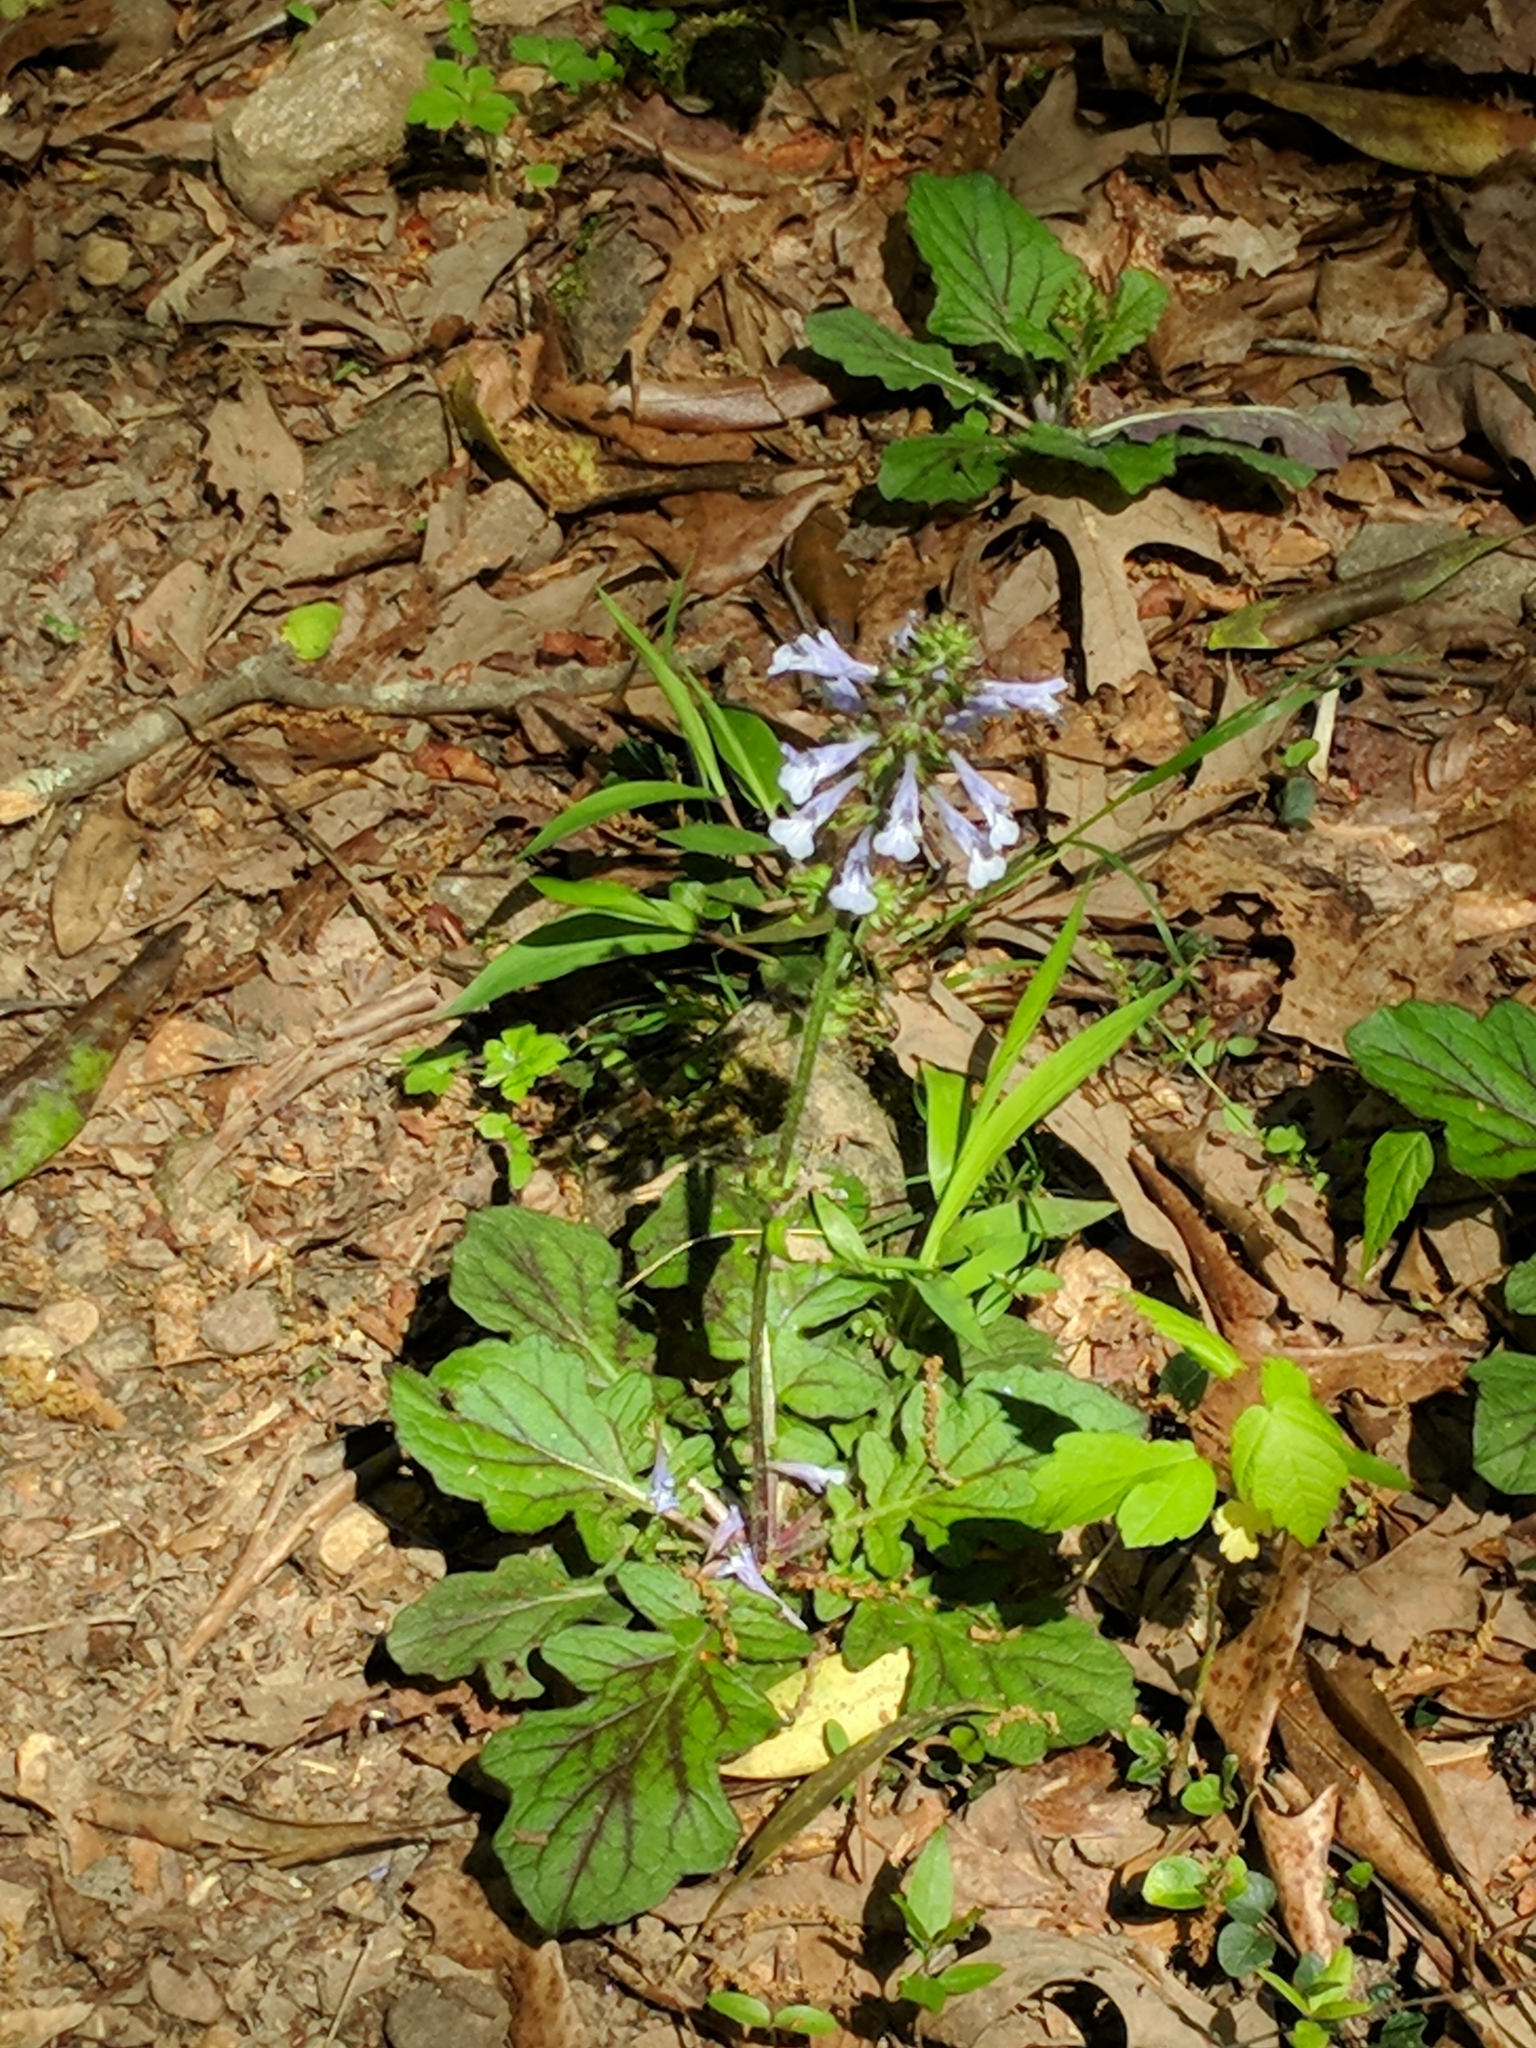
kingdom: Plantae
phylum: Tracheophyta
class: Magnoliopsida
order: Lamiales
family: Lamiaceae
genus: Salvia
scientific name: Salvia lyrata
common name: Cancerweed
